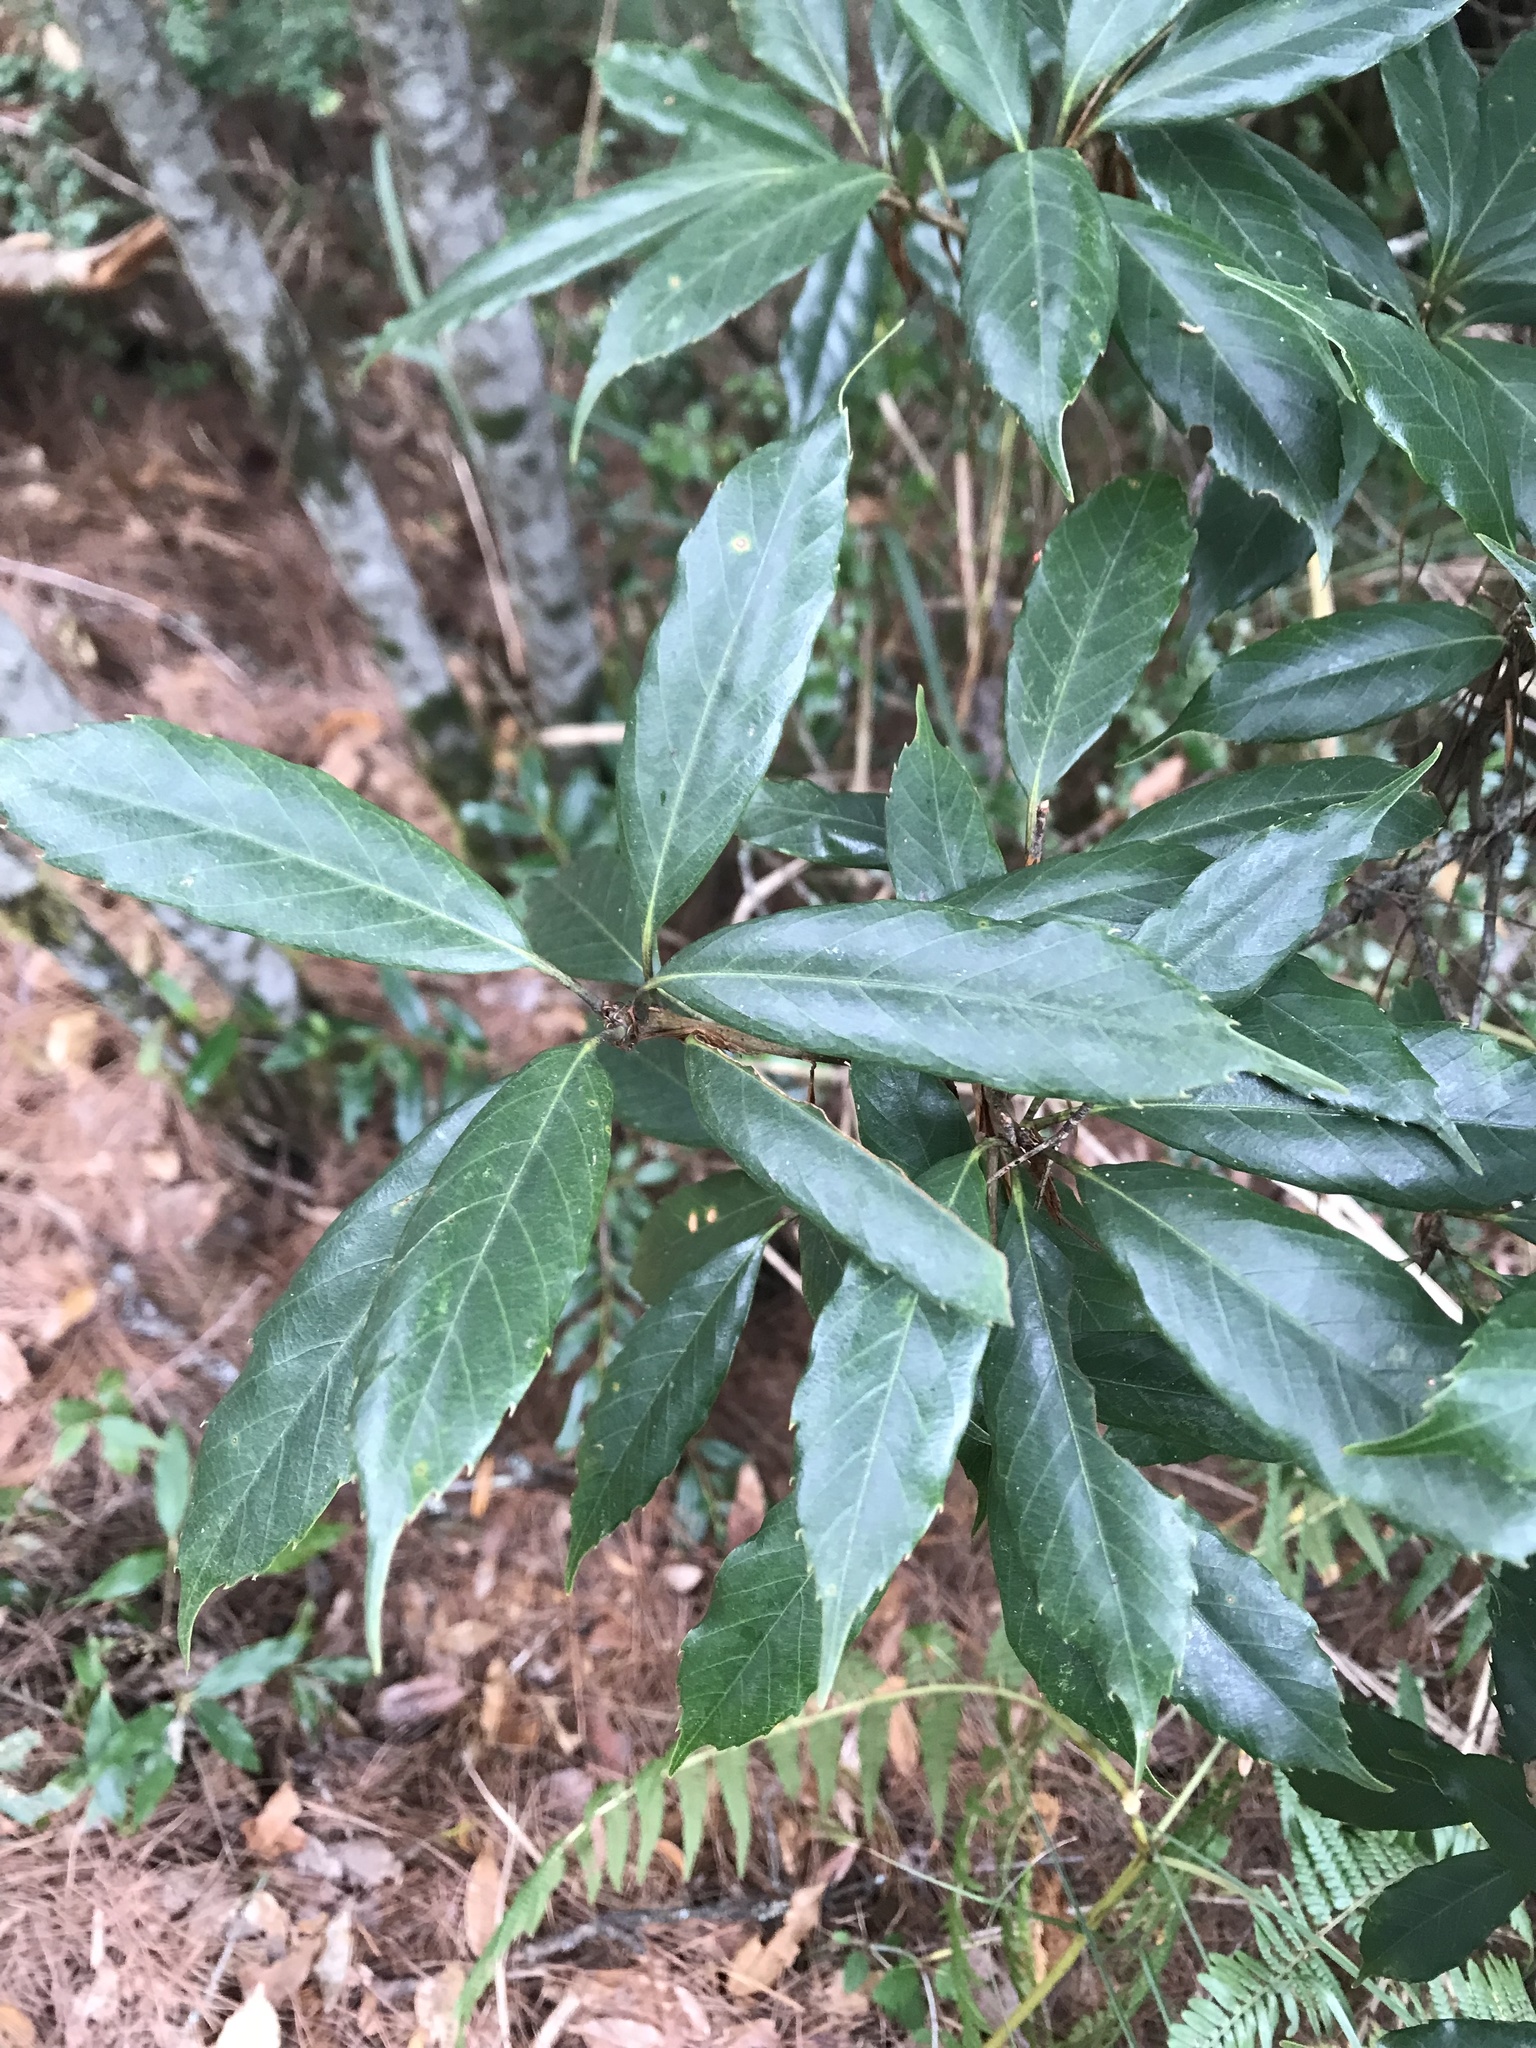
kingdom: Plantae
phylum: Tracheophyta
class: Magnoliopsida
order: Fagales
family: Fagaceae
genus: Quercus
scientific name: Quercus sessilifolia
